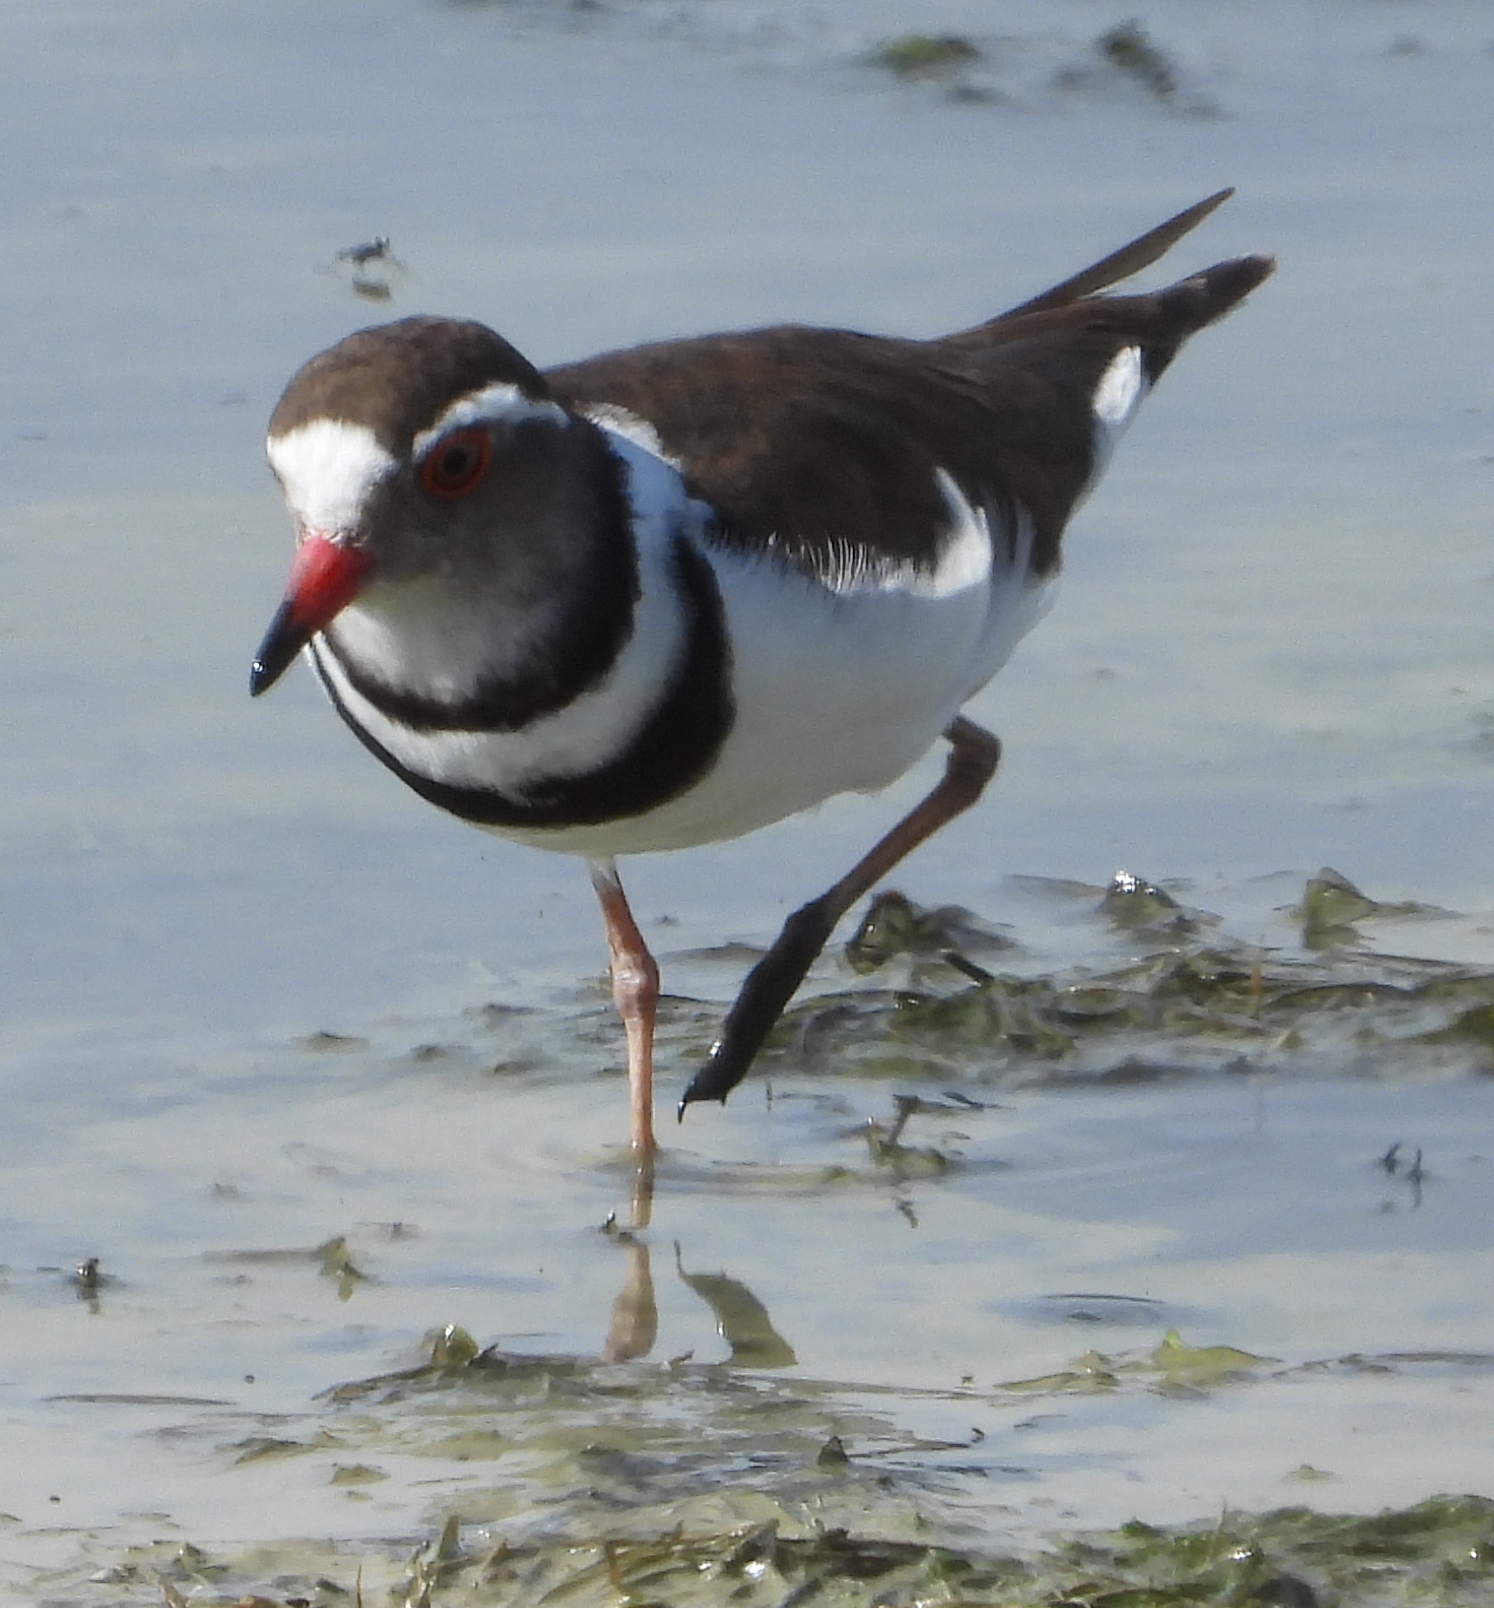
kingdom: Animalia
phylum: Chordata
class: Aves
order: Charadriiformes
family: Charadriidae
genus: Charadrius
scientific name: Charadrius tricollaris
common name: Three-banded plover
